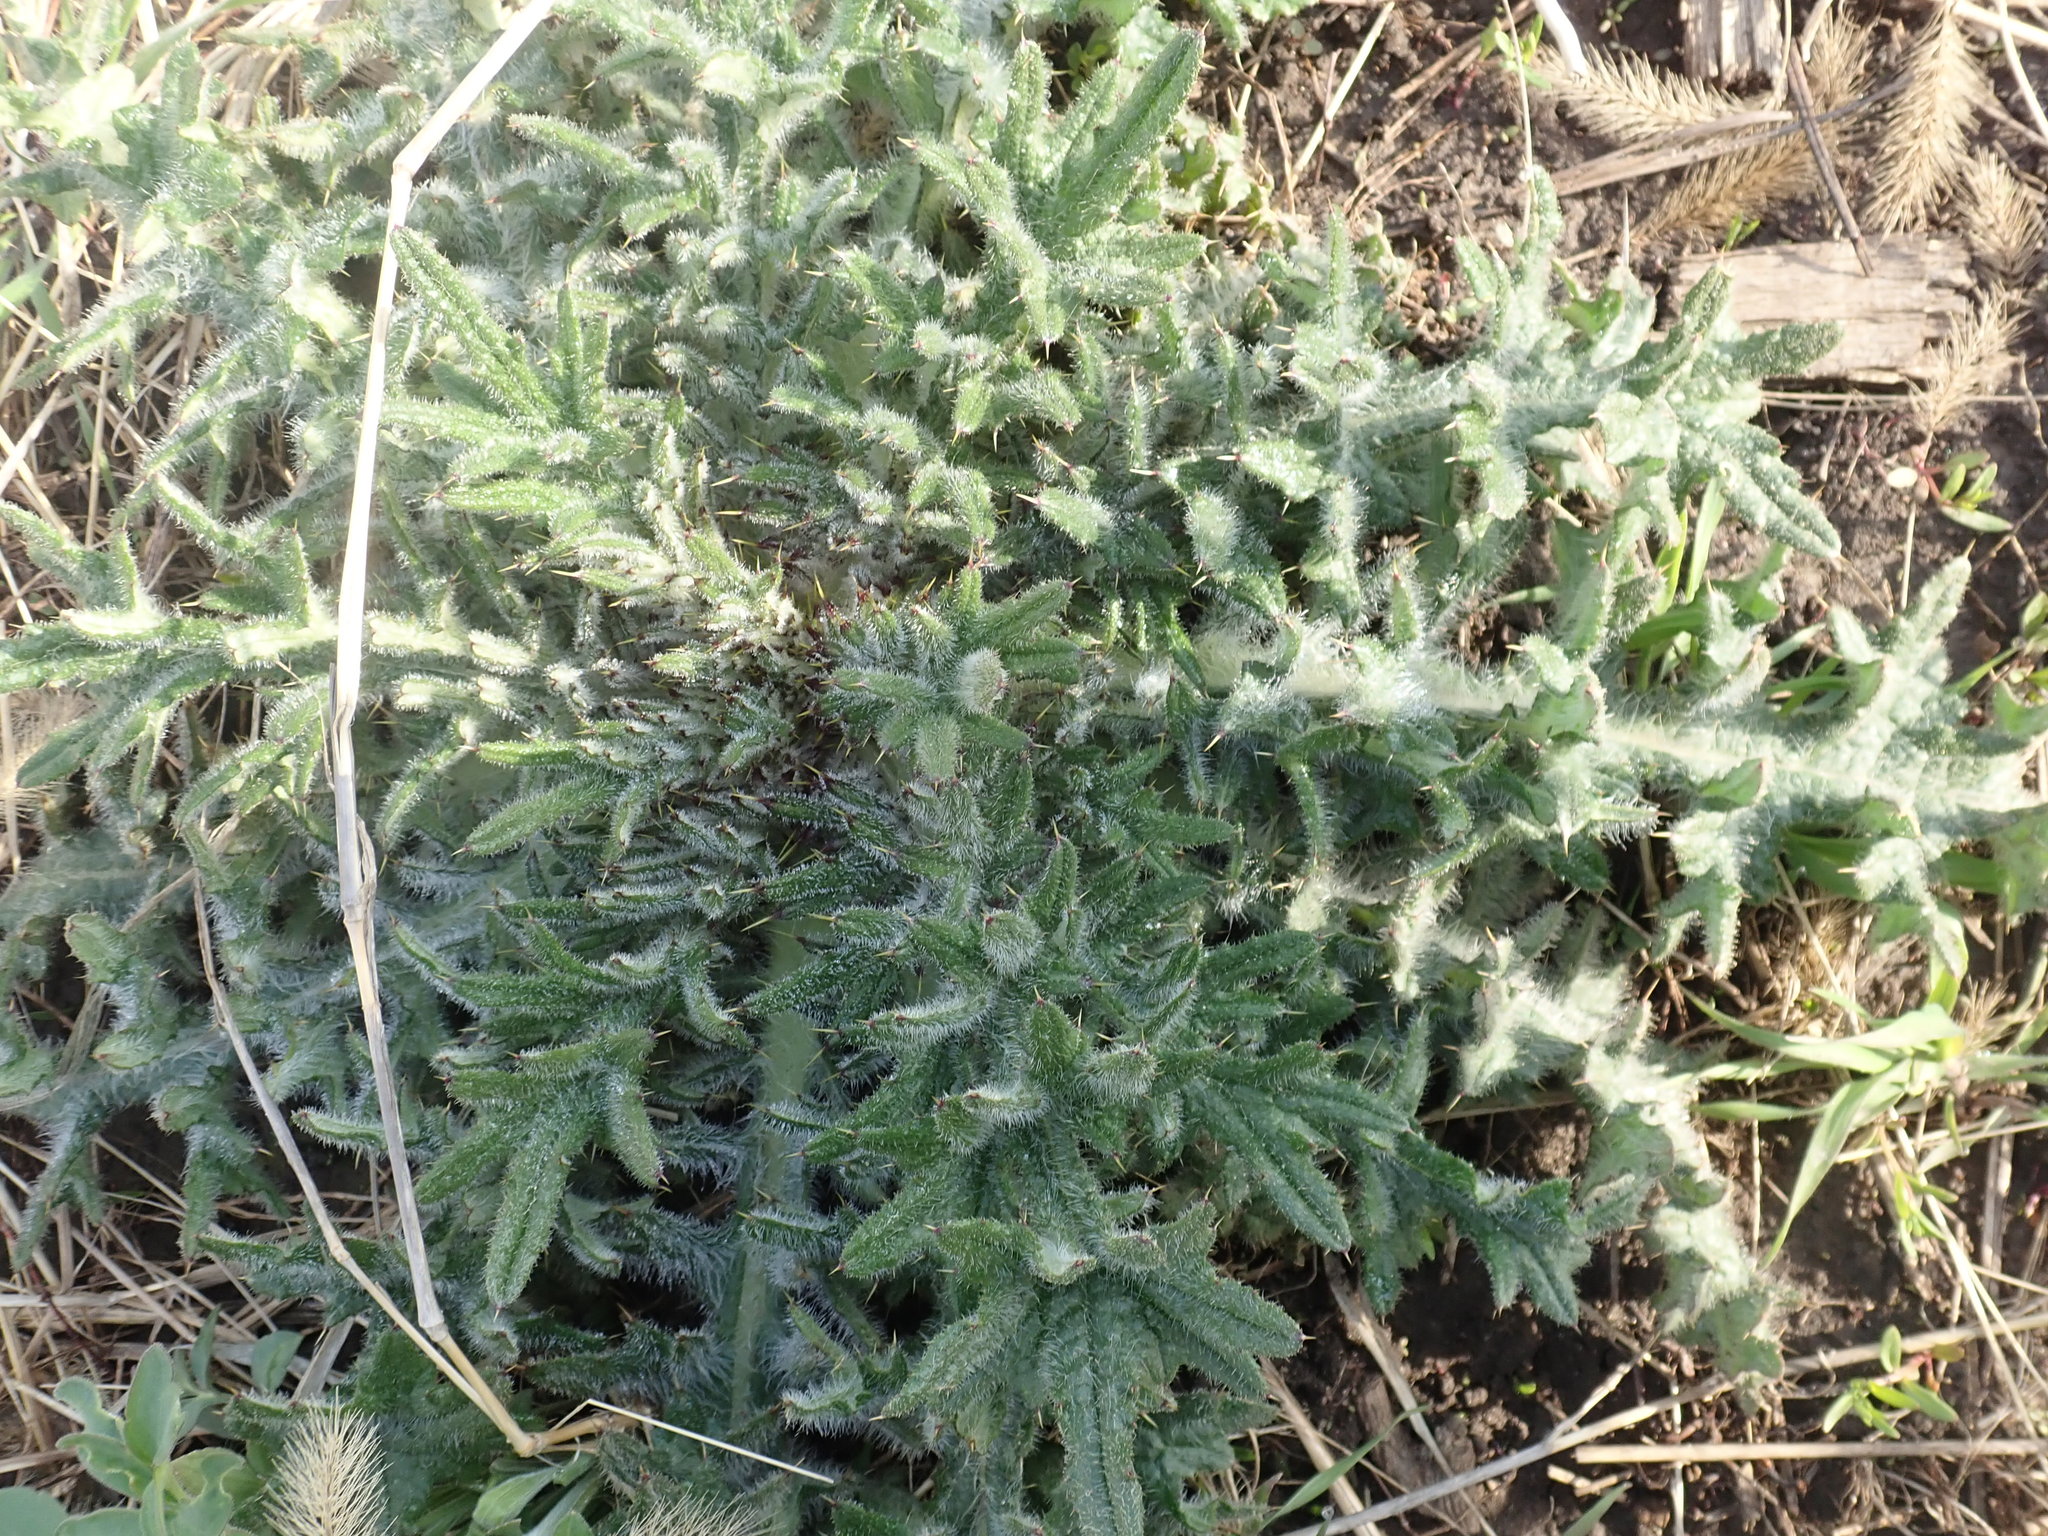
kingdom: Plantae
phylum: Tracheophyta
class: Magnoliopsida
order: Asterales
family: Asteraceae
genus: Cirsium
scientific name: Cirsium vulgare
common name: Bull thistle
